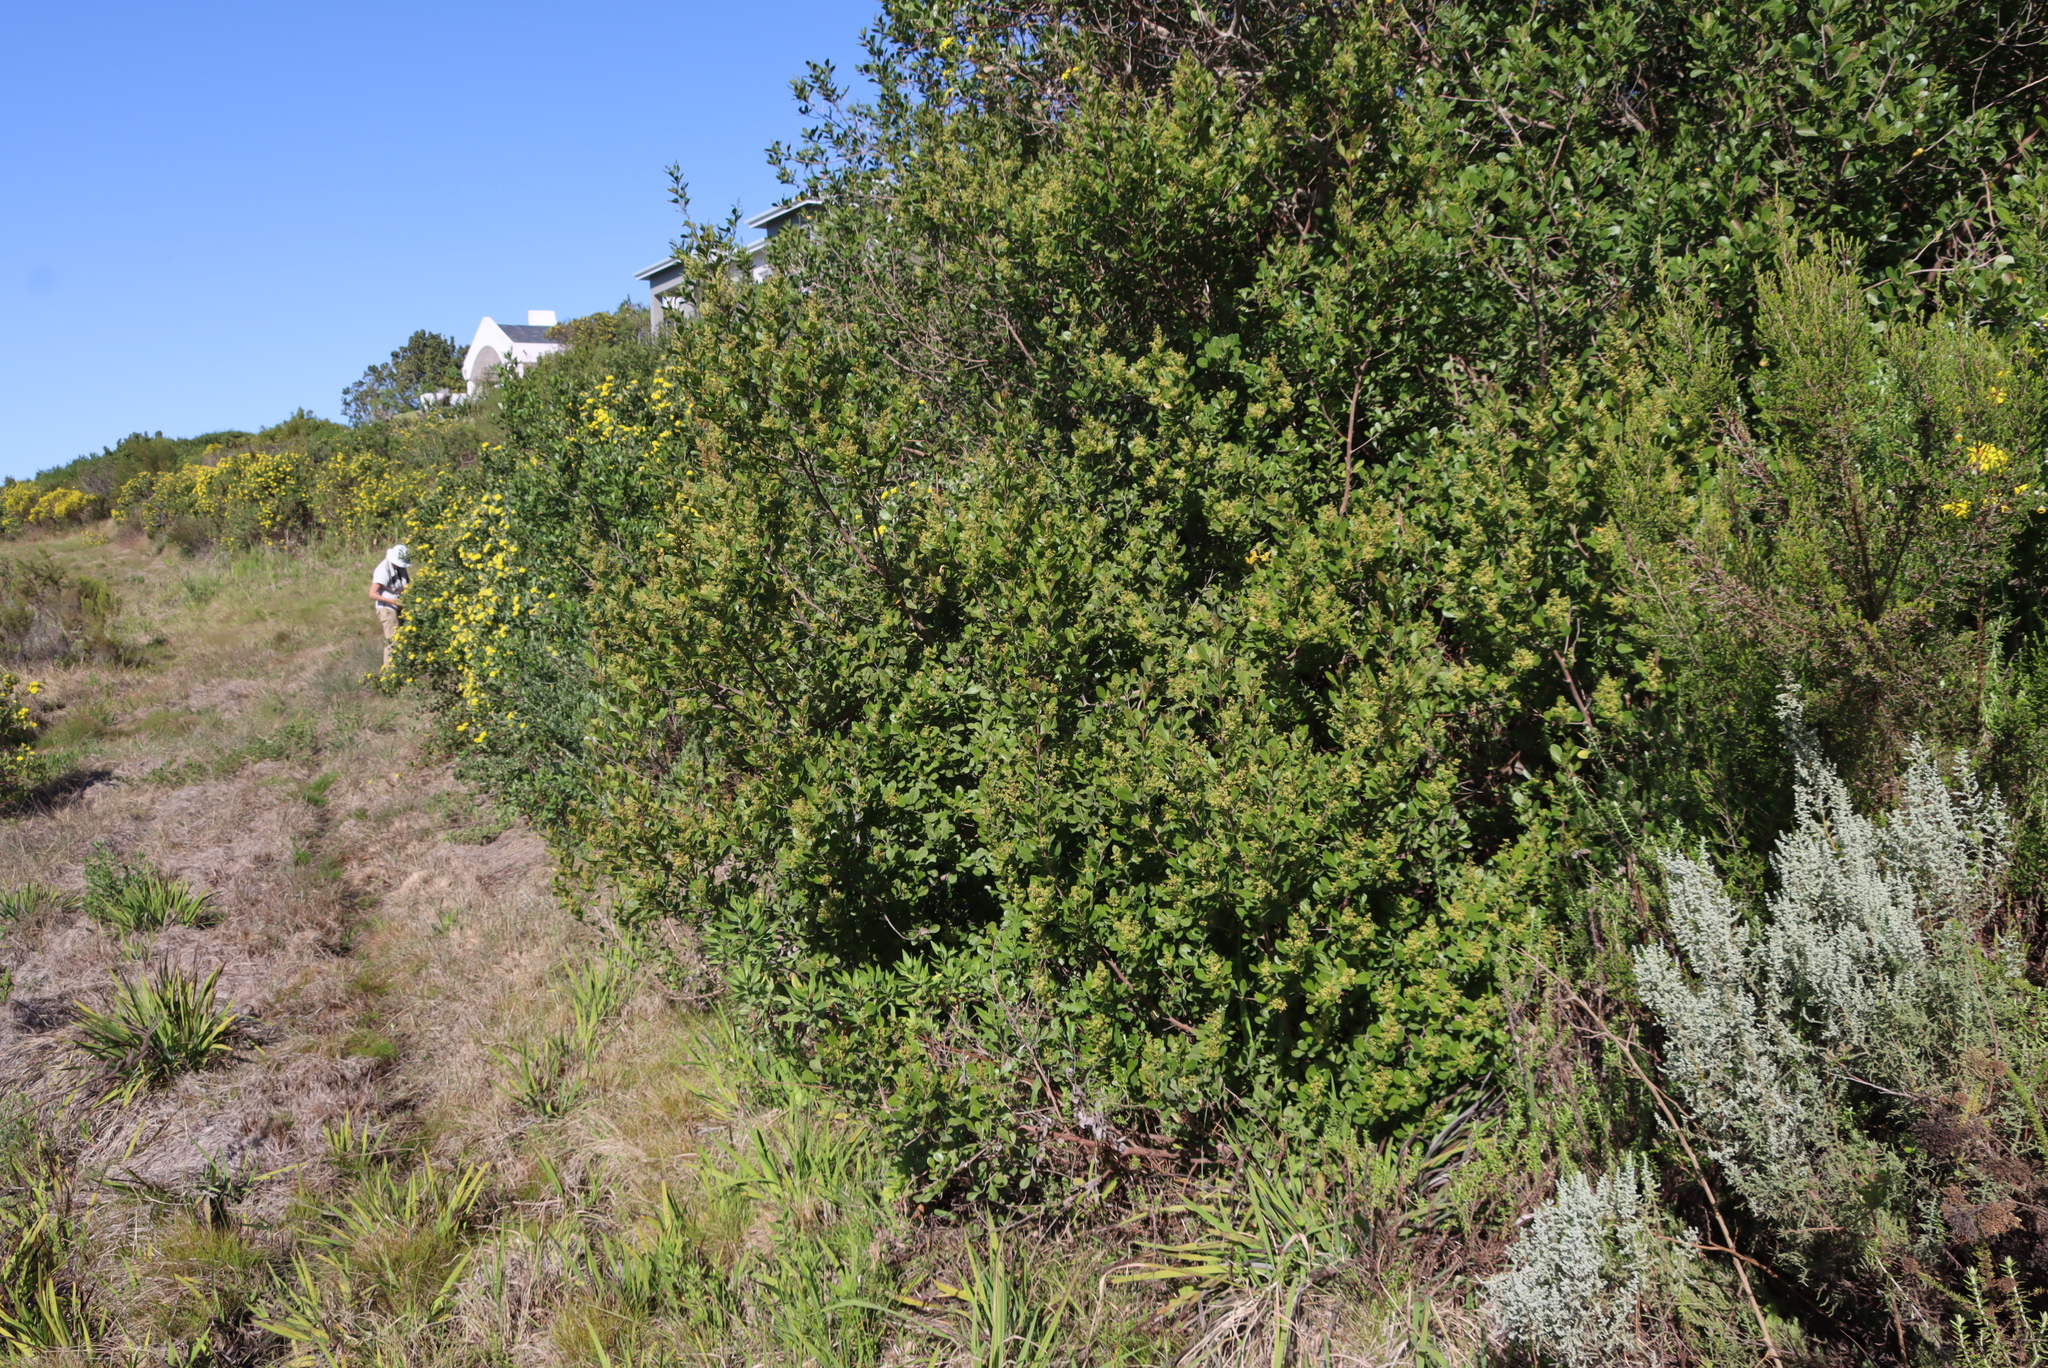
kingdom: Plantae
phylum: Tracheophyta
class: Magnoliopsida
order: Sapindales
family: Anacardiaceae
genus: Searsia
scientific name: Searsia lucida
